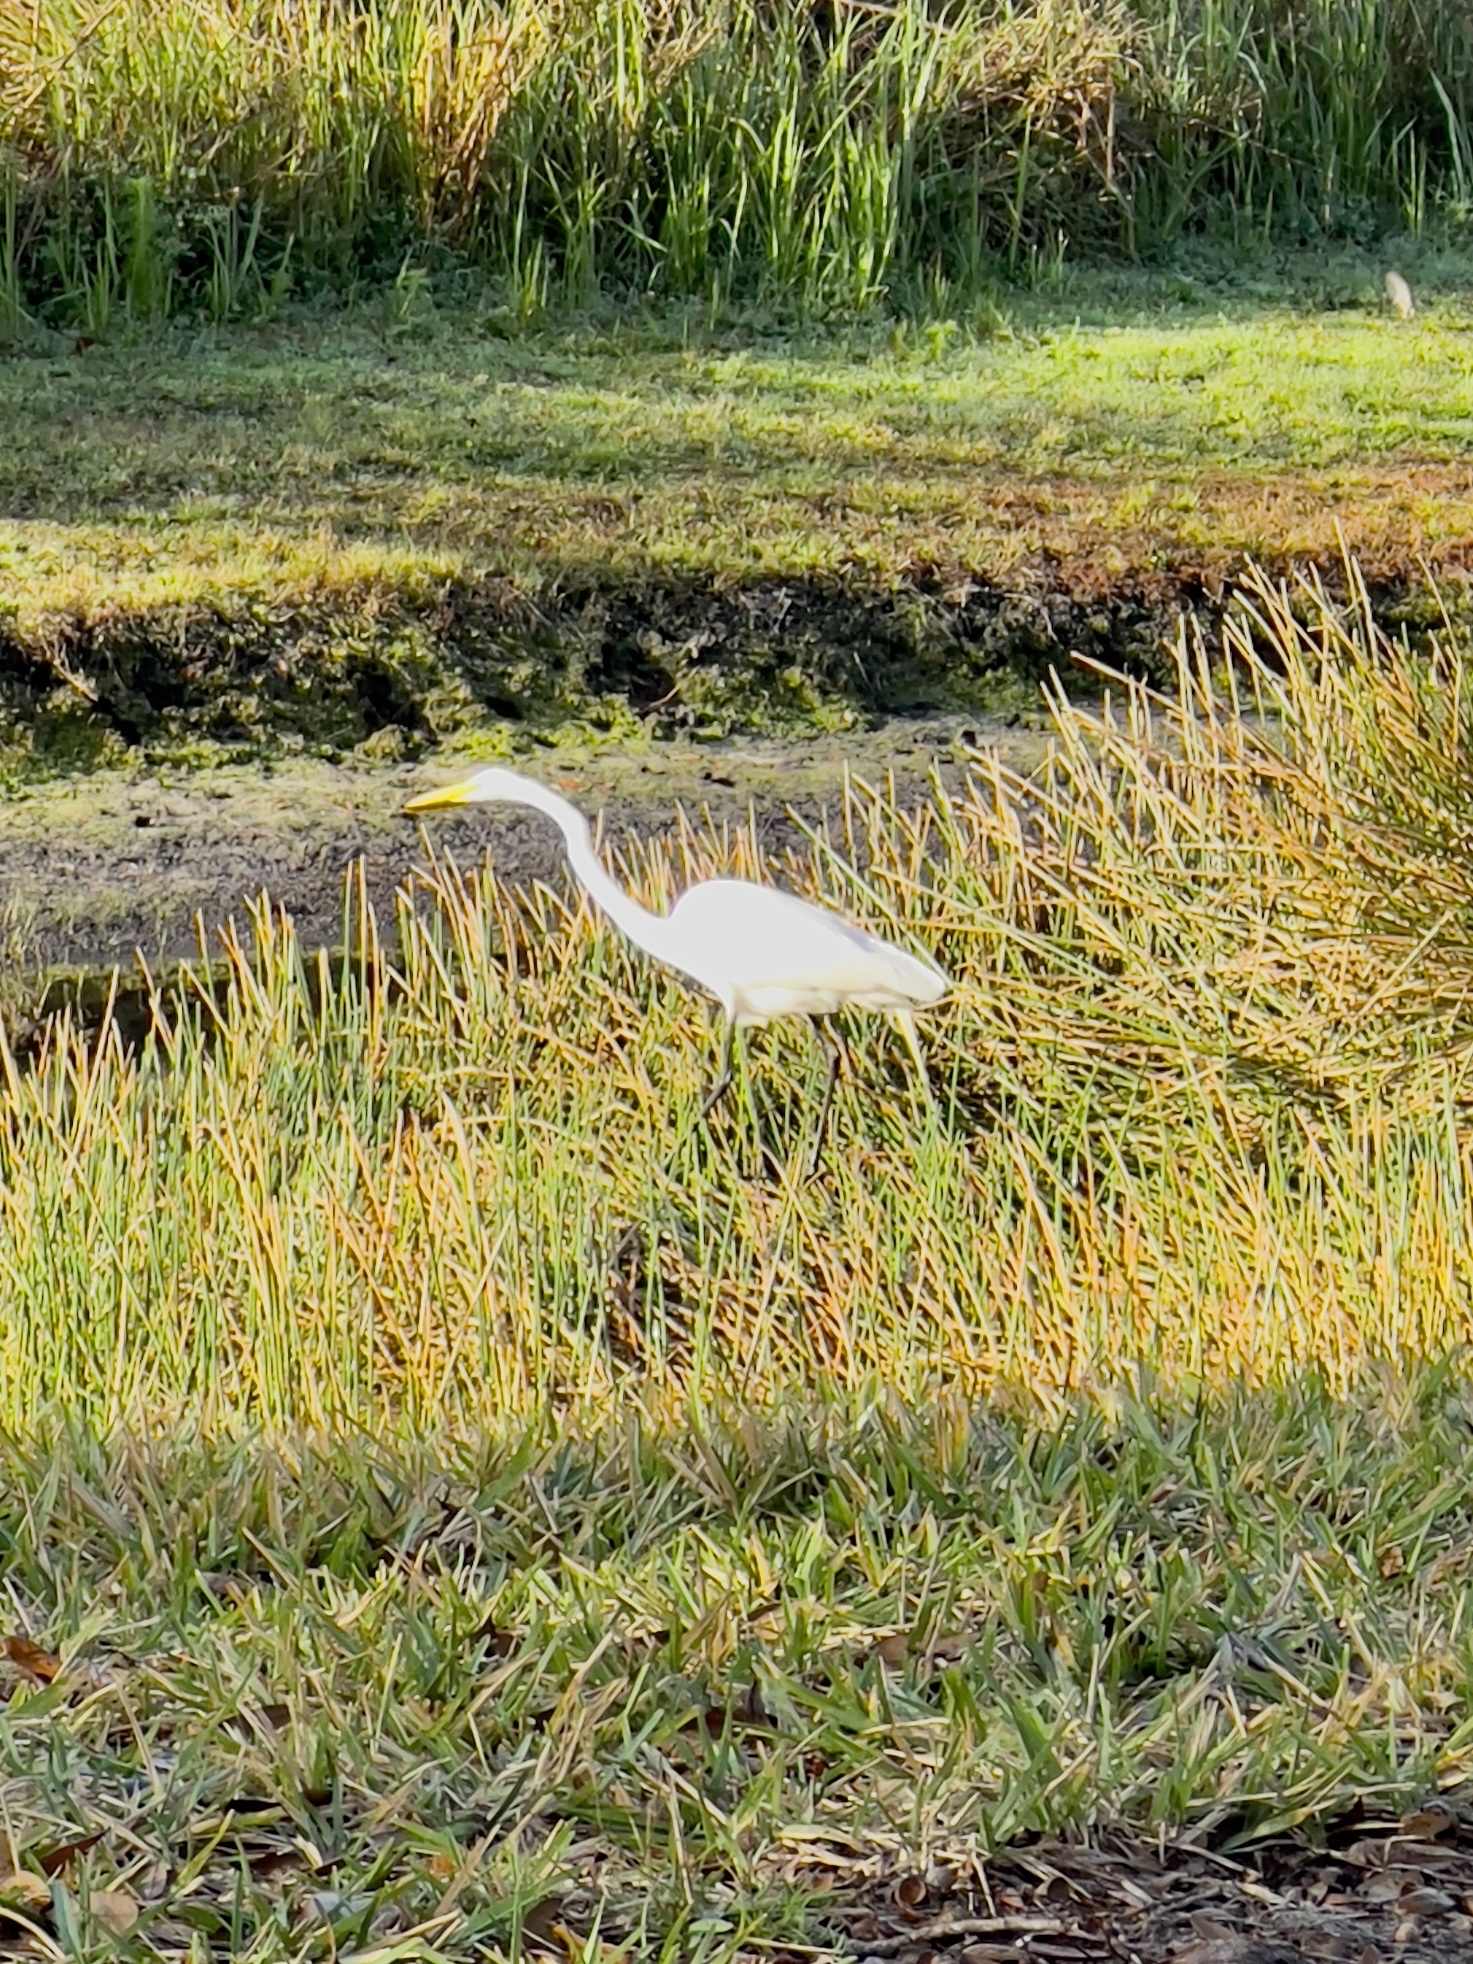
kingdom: Animalia
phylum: Chordata
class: Aves
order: Pelecaniformes
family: Ardeidae
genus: Ardea
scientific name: Ardea alba
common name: Great egret
